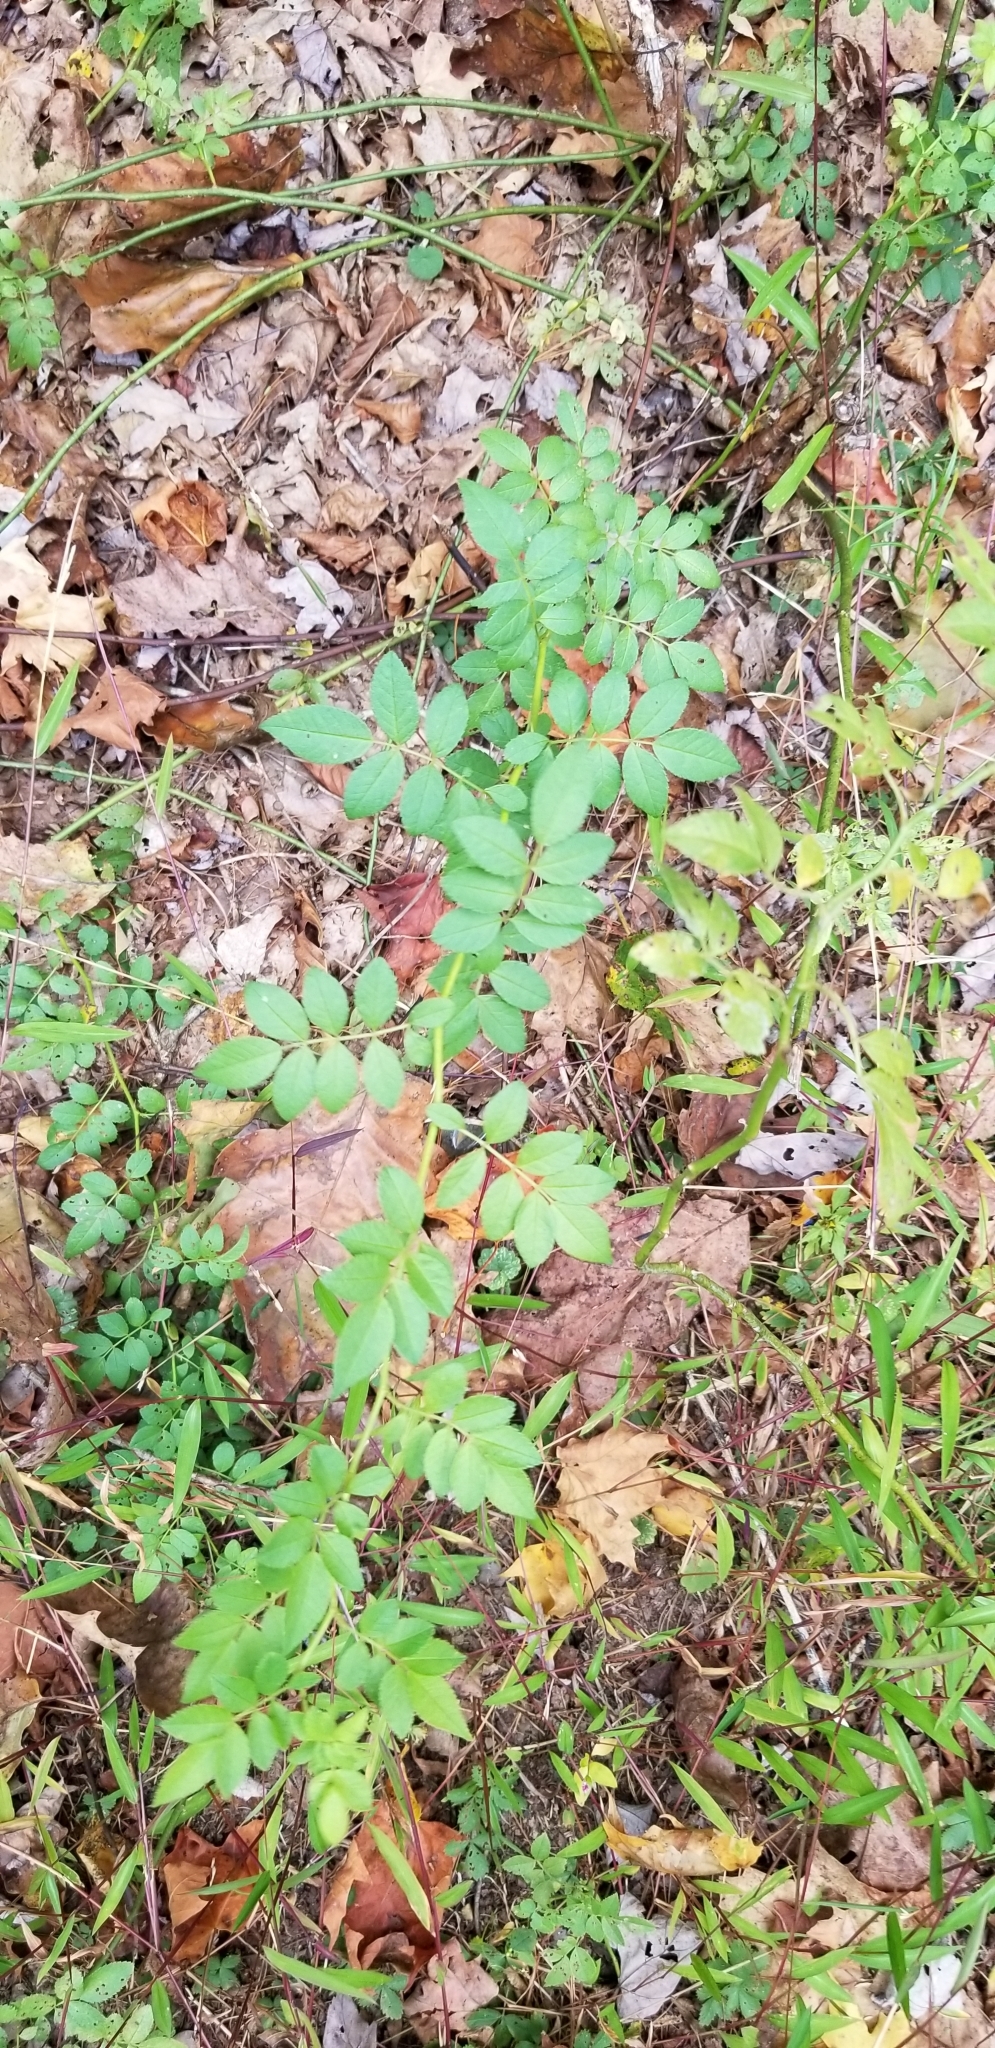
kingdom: Plantae
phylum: Tracheophyta
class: Magnoliopsida
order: Rosales
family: Rosaceae
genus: Rosa
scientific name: Rosa multiflora
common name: Multiflora rose
